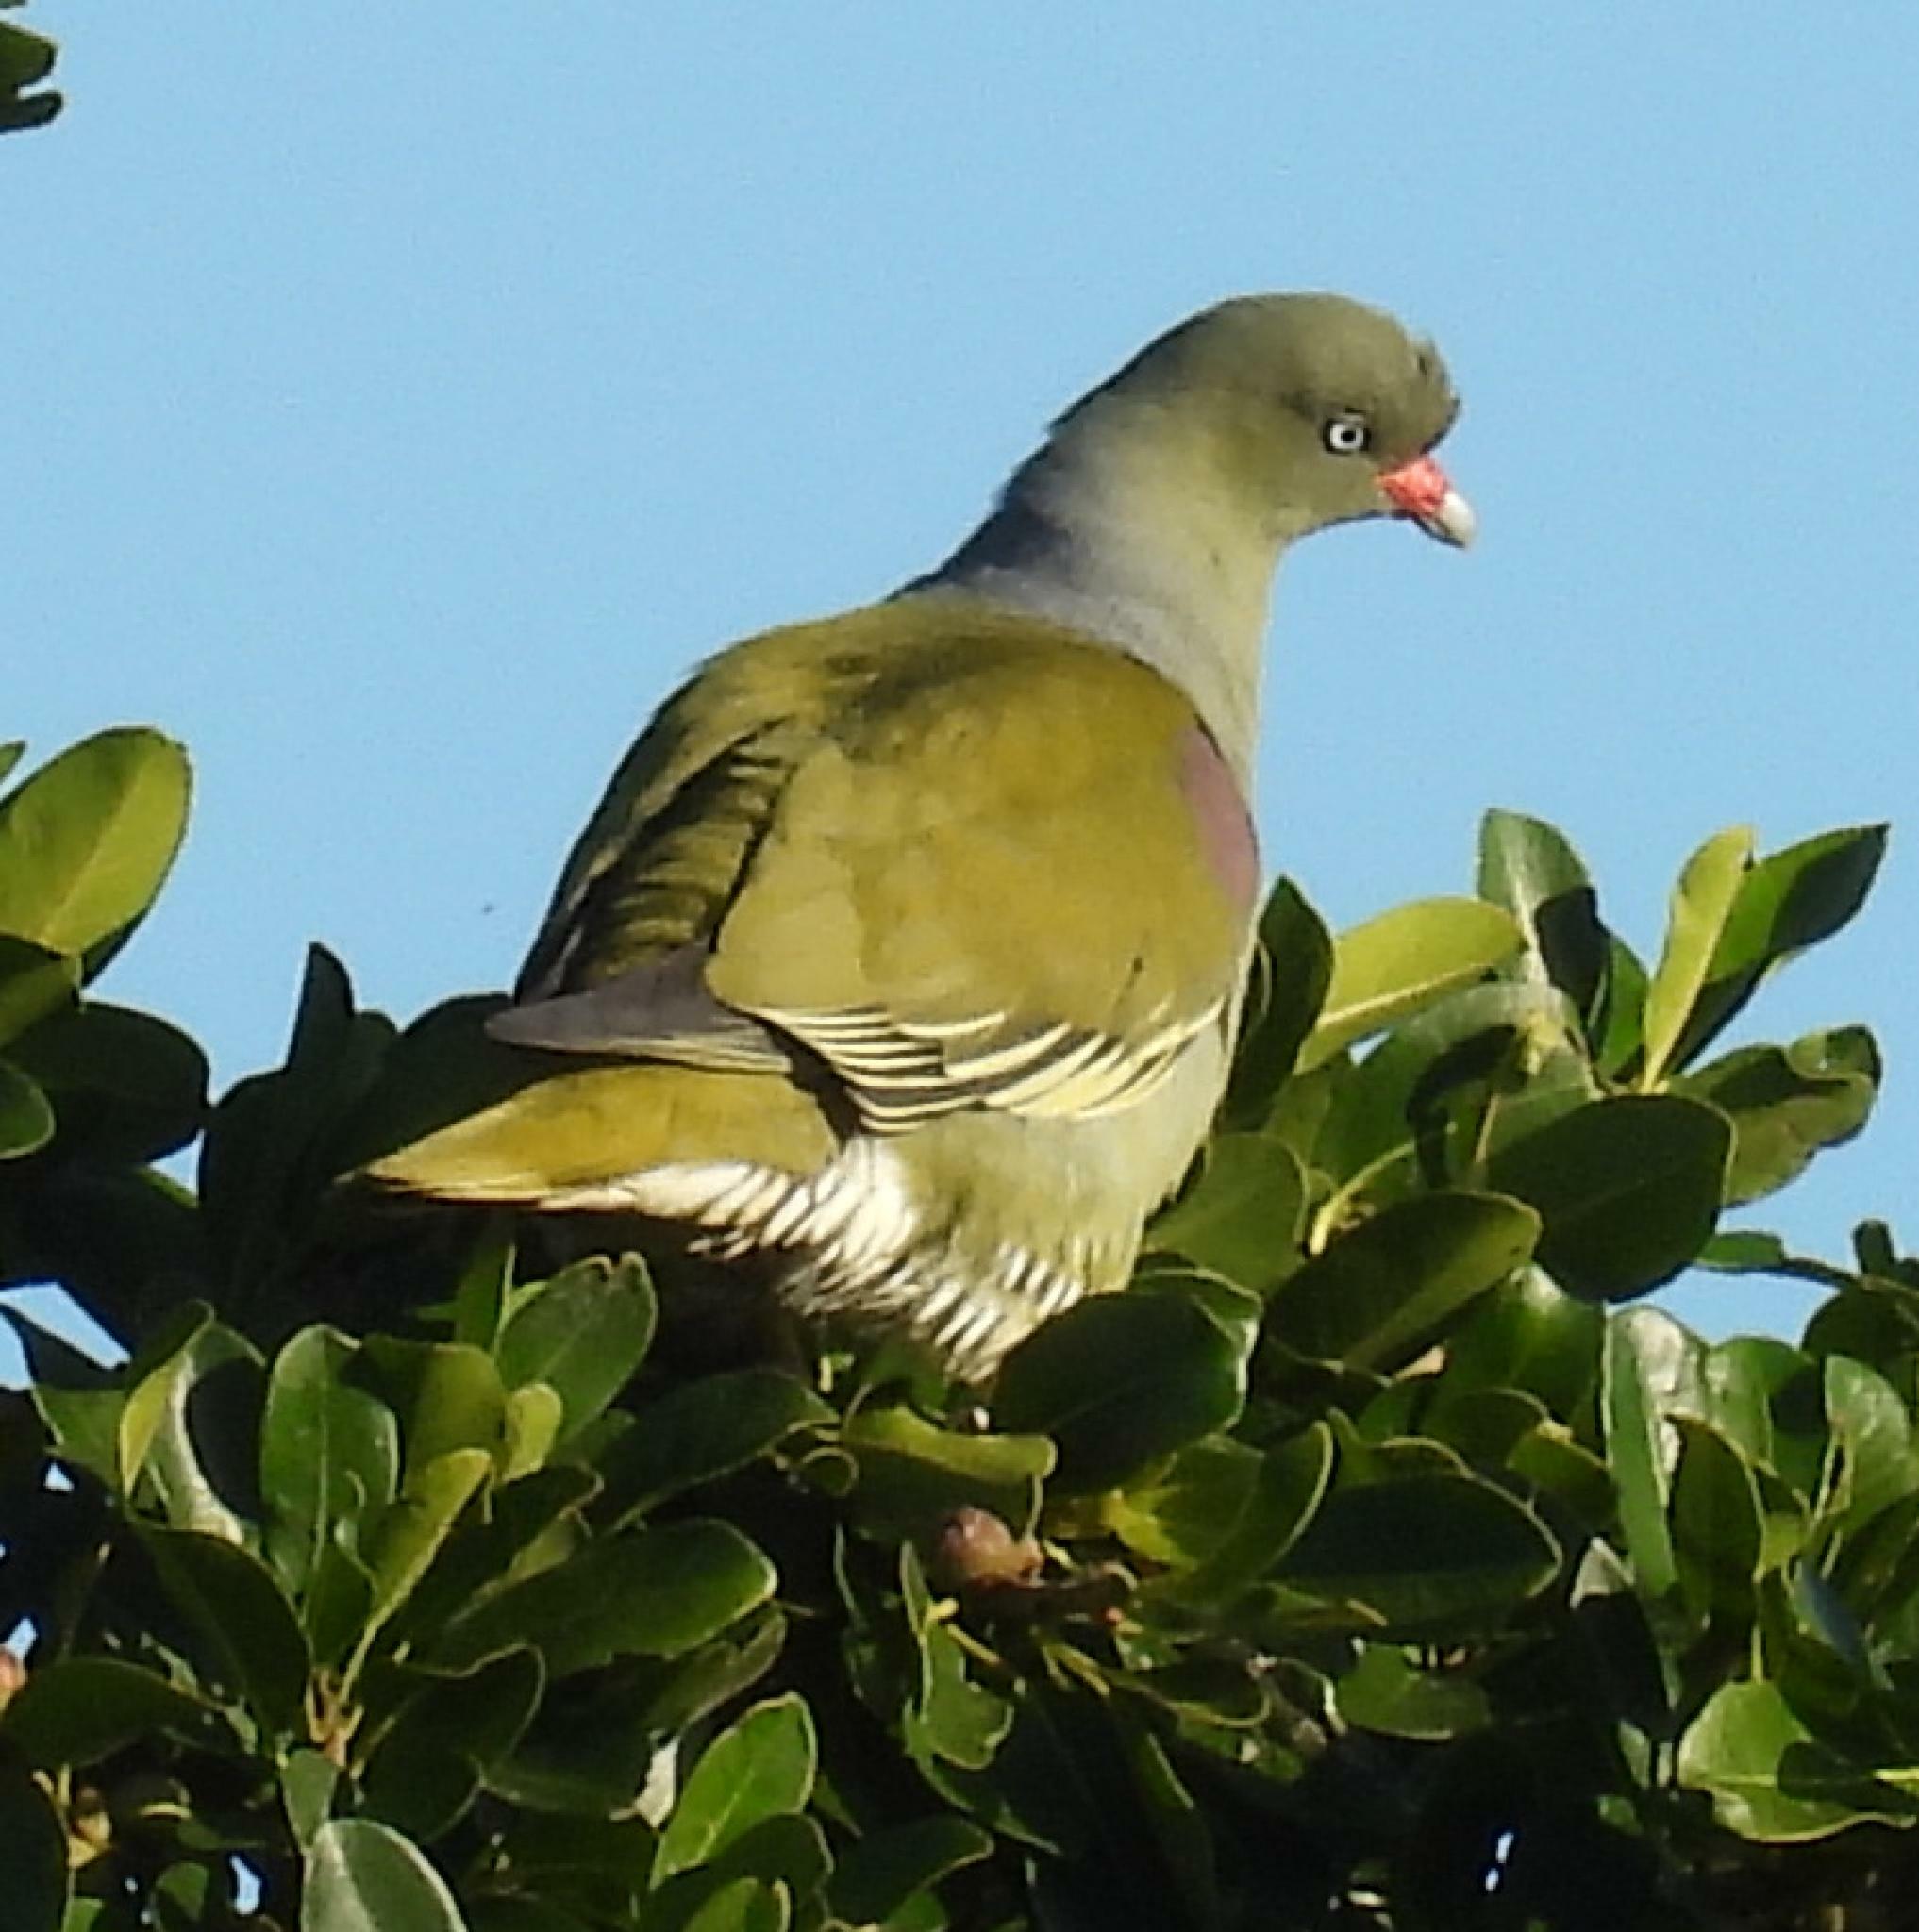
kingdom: Animalia
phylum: Chordata
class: Aves
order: Columbiformes
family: Columbidae
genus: Treron
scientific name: Treron calvus
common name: African green pigeon
